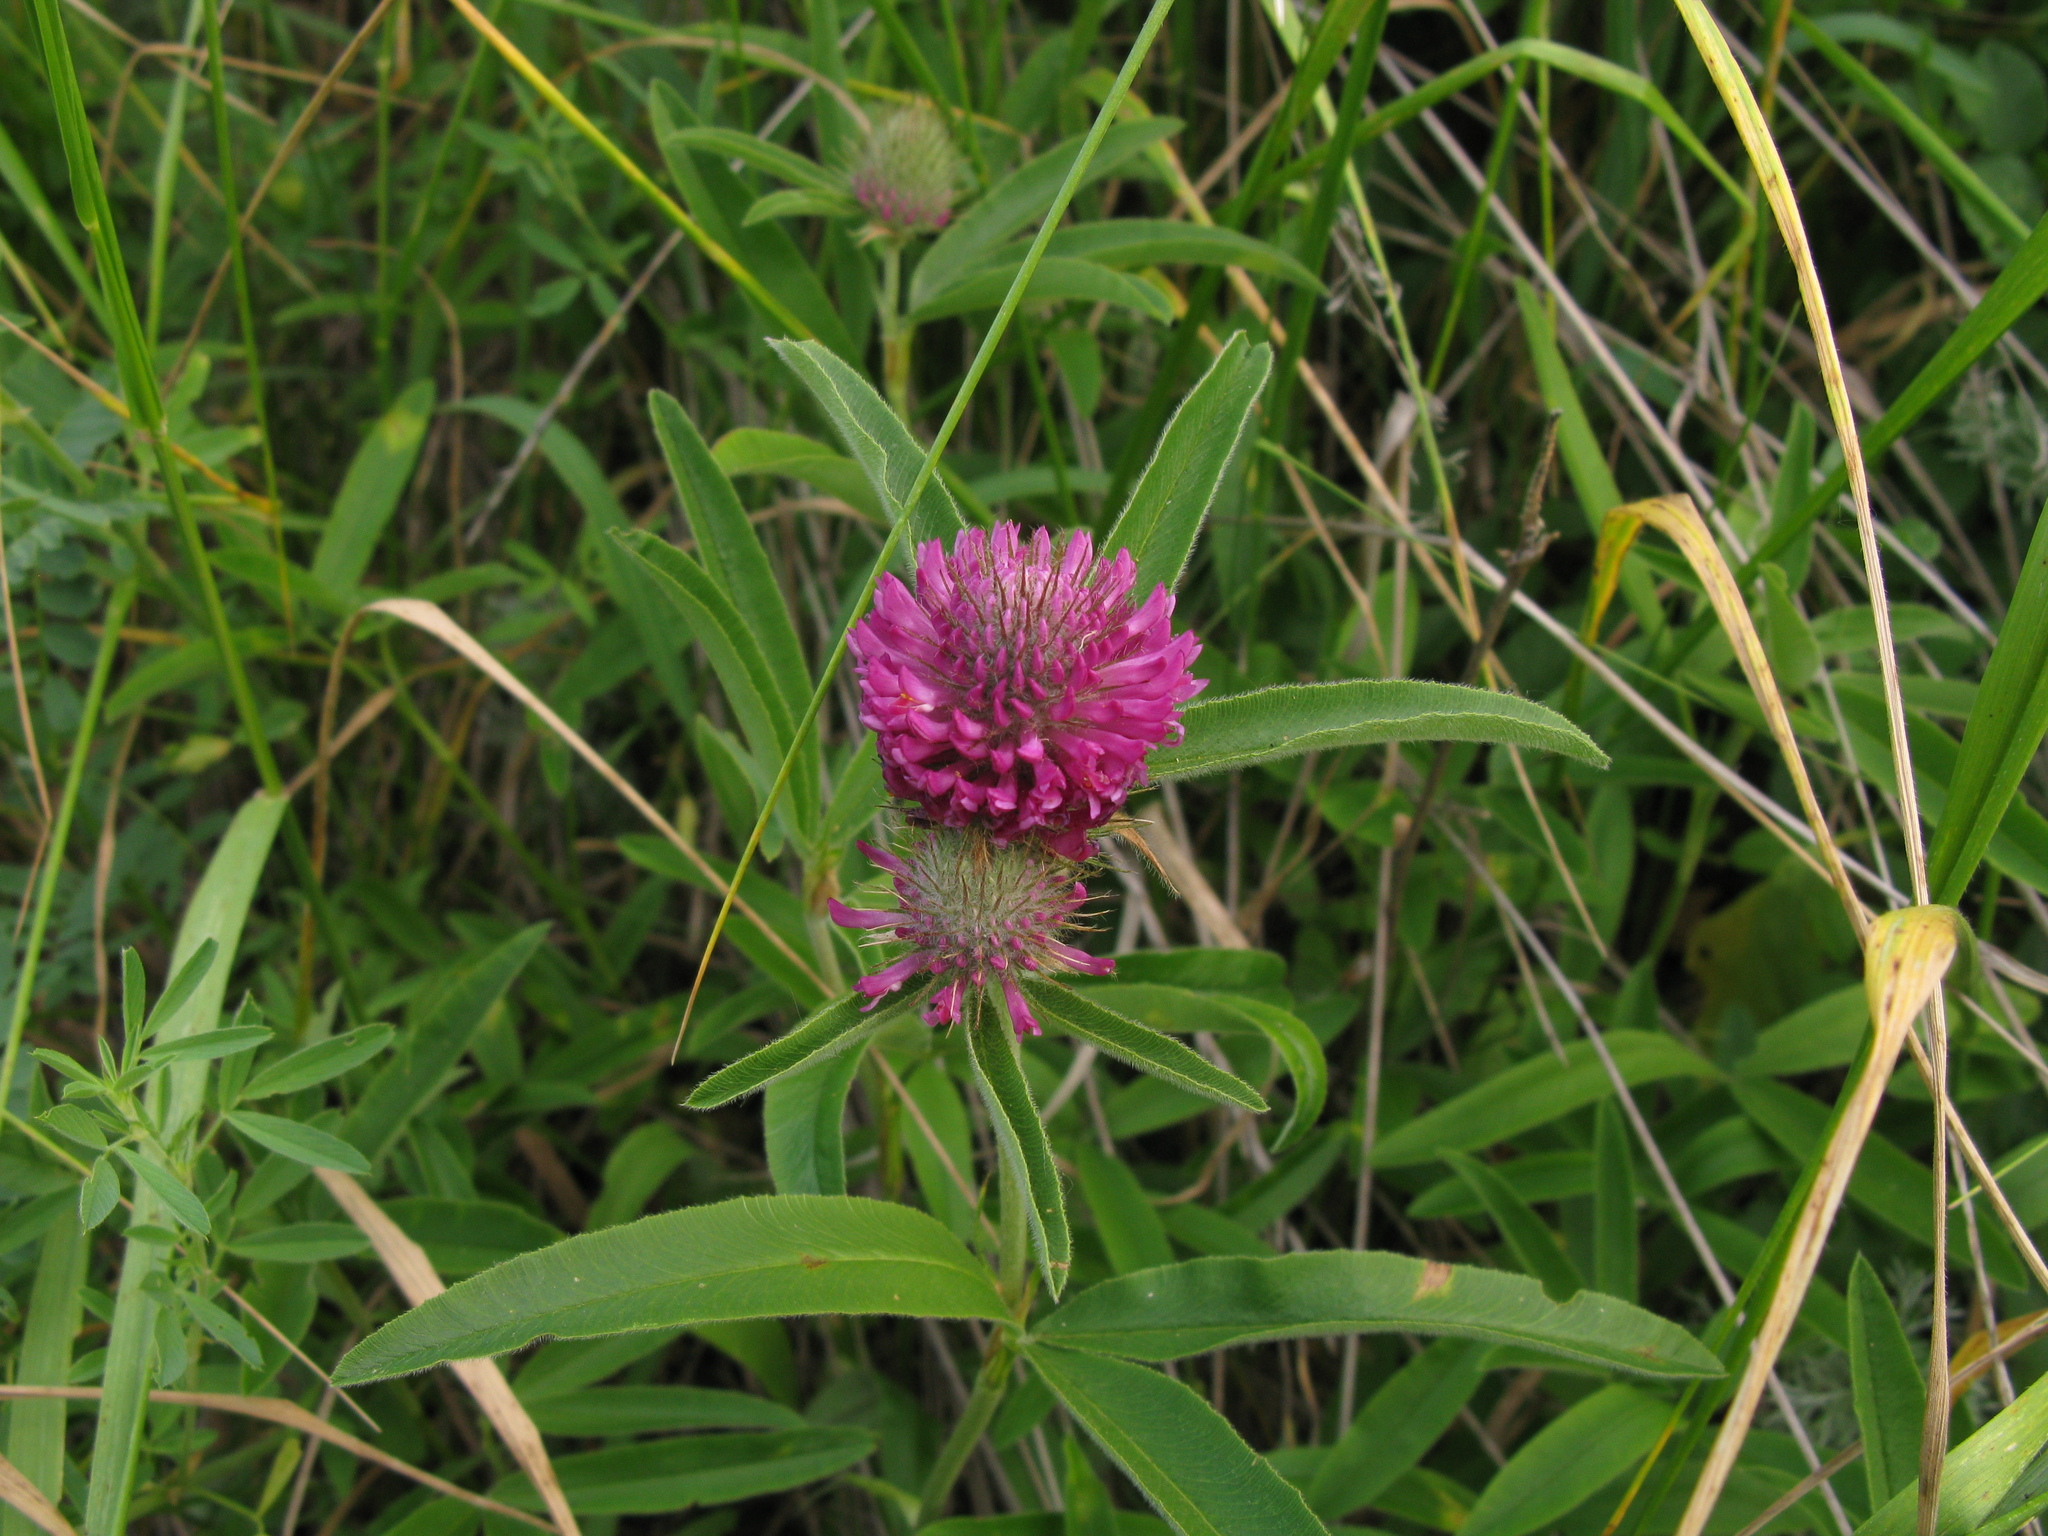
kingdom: Plantae
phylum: Tracheophyta
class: Magnoliopsida
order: Fabales
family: Fabaceae
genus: Trifolium
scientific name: Trifolium alpestre
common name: Owl-head clover
